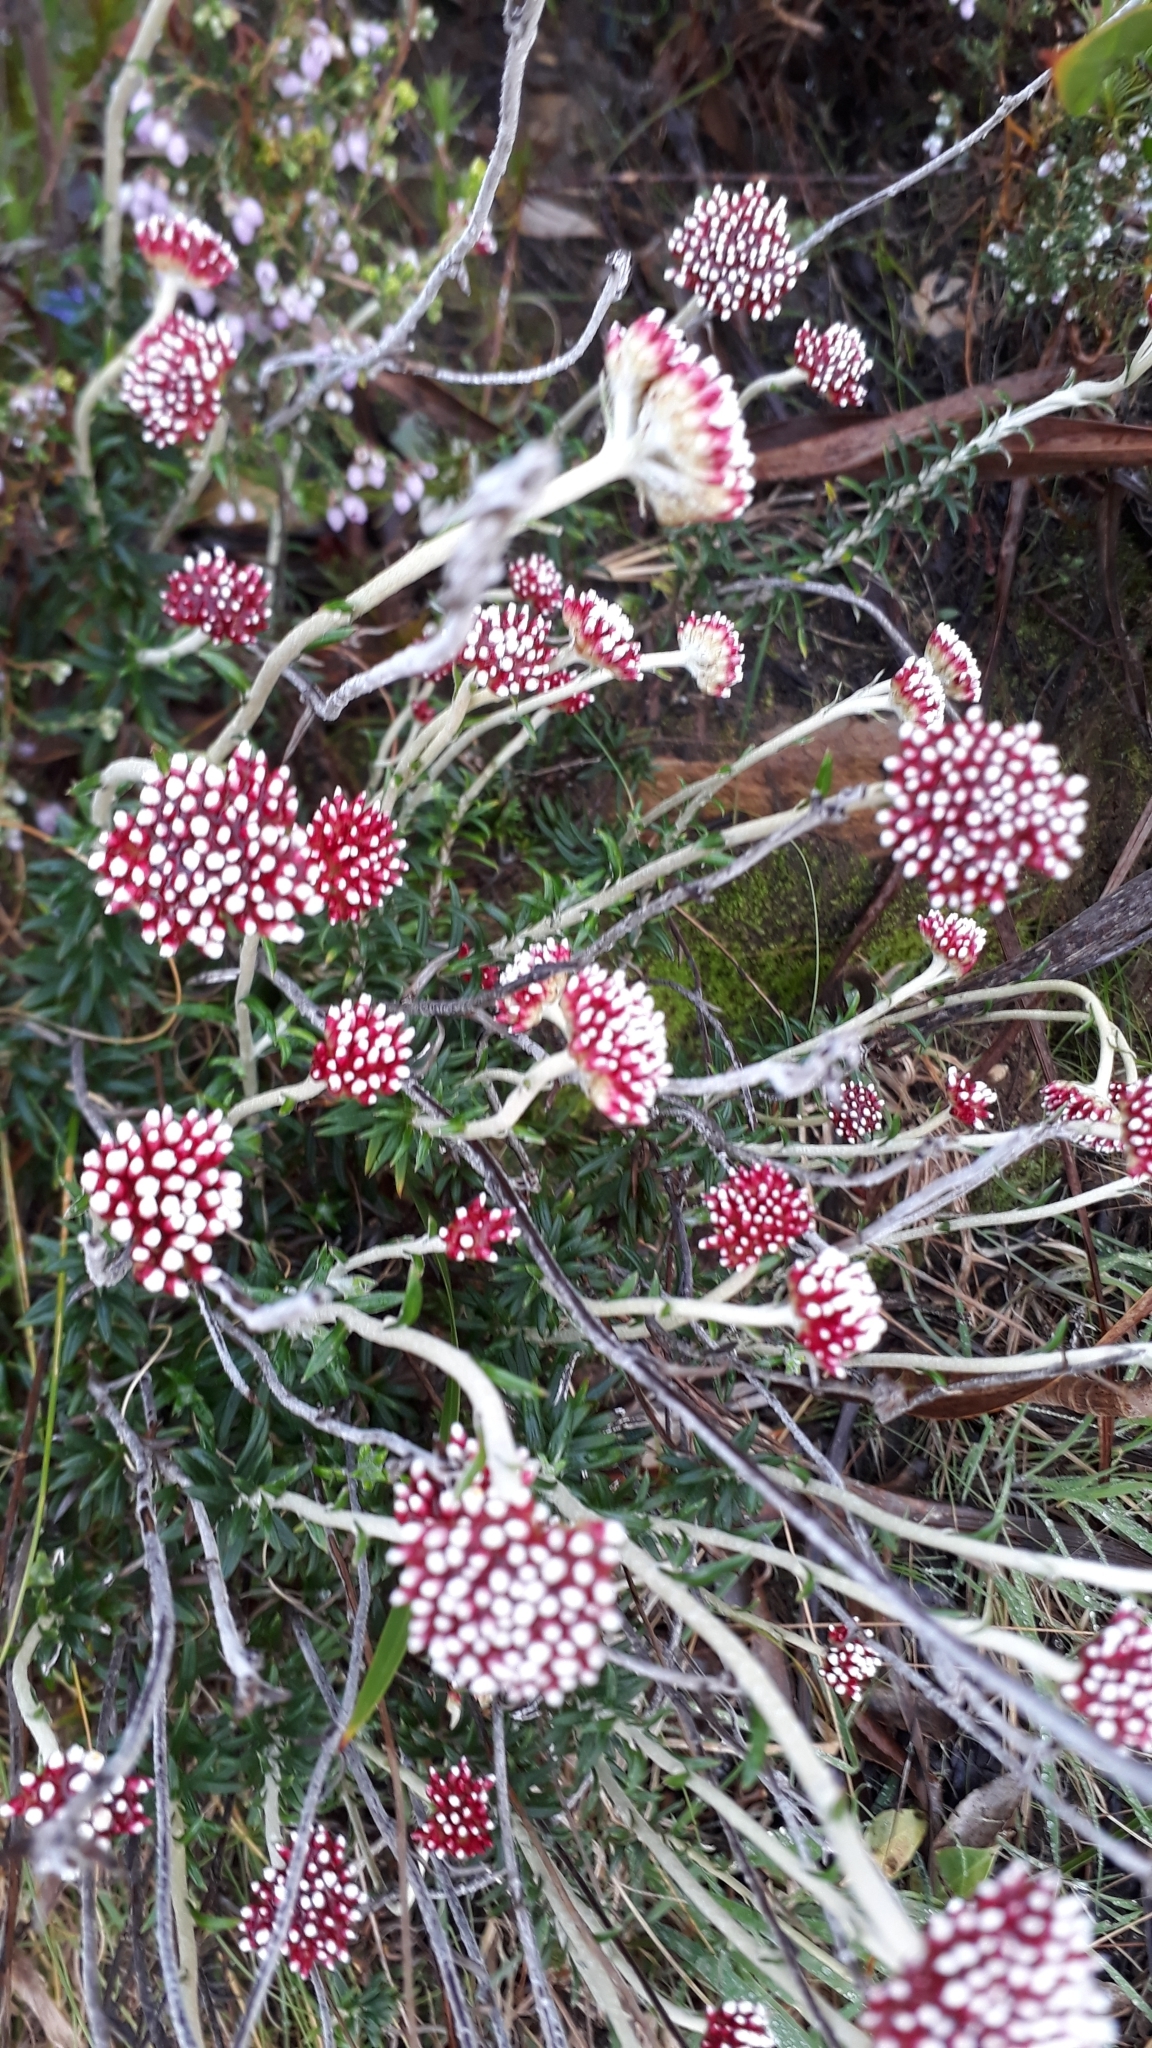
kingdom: Plantae
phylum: Tracheophyta
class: Magnoliopsida
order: Asterales
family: Asteraceae
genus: Anaxeton
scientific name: Anaxeton arborescens
